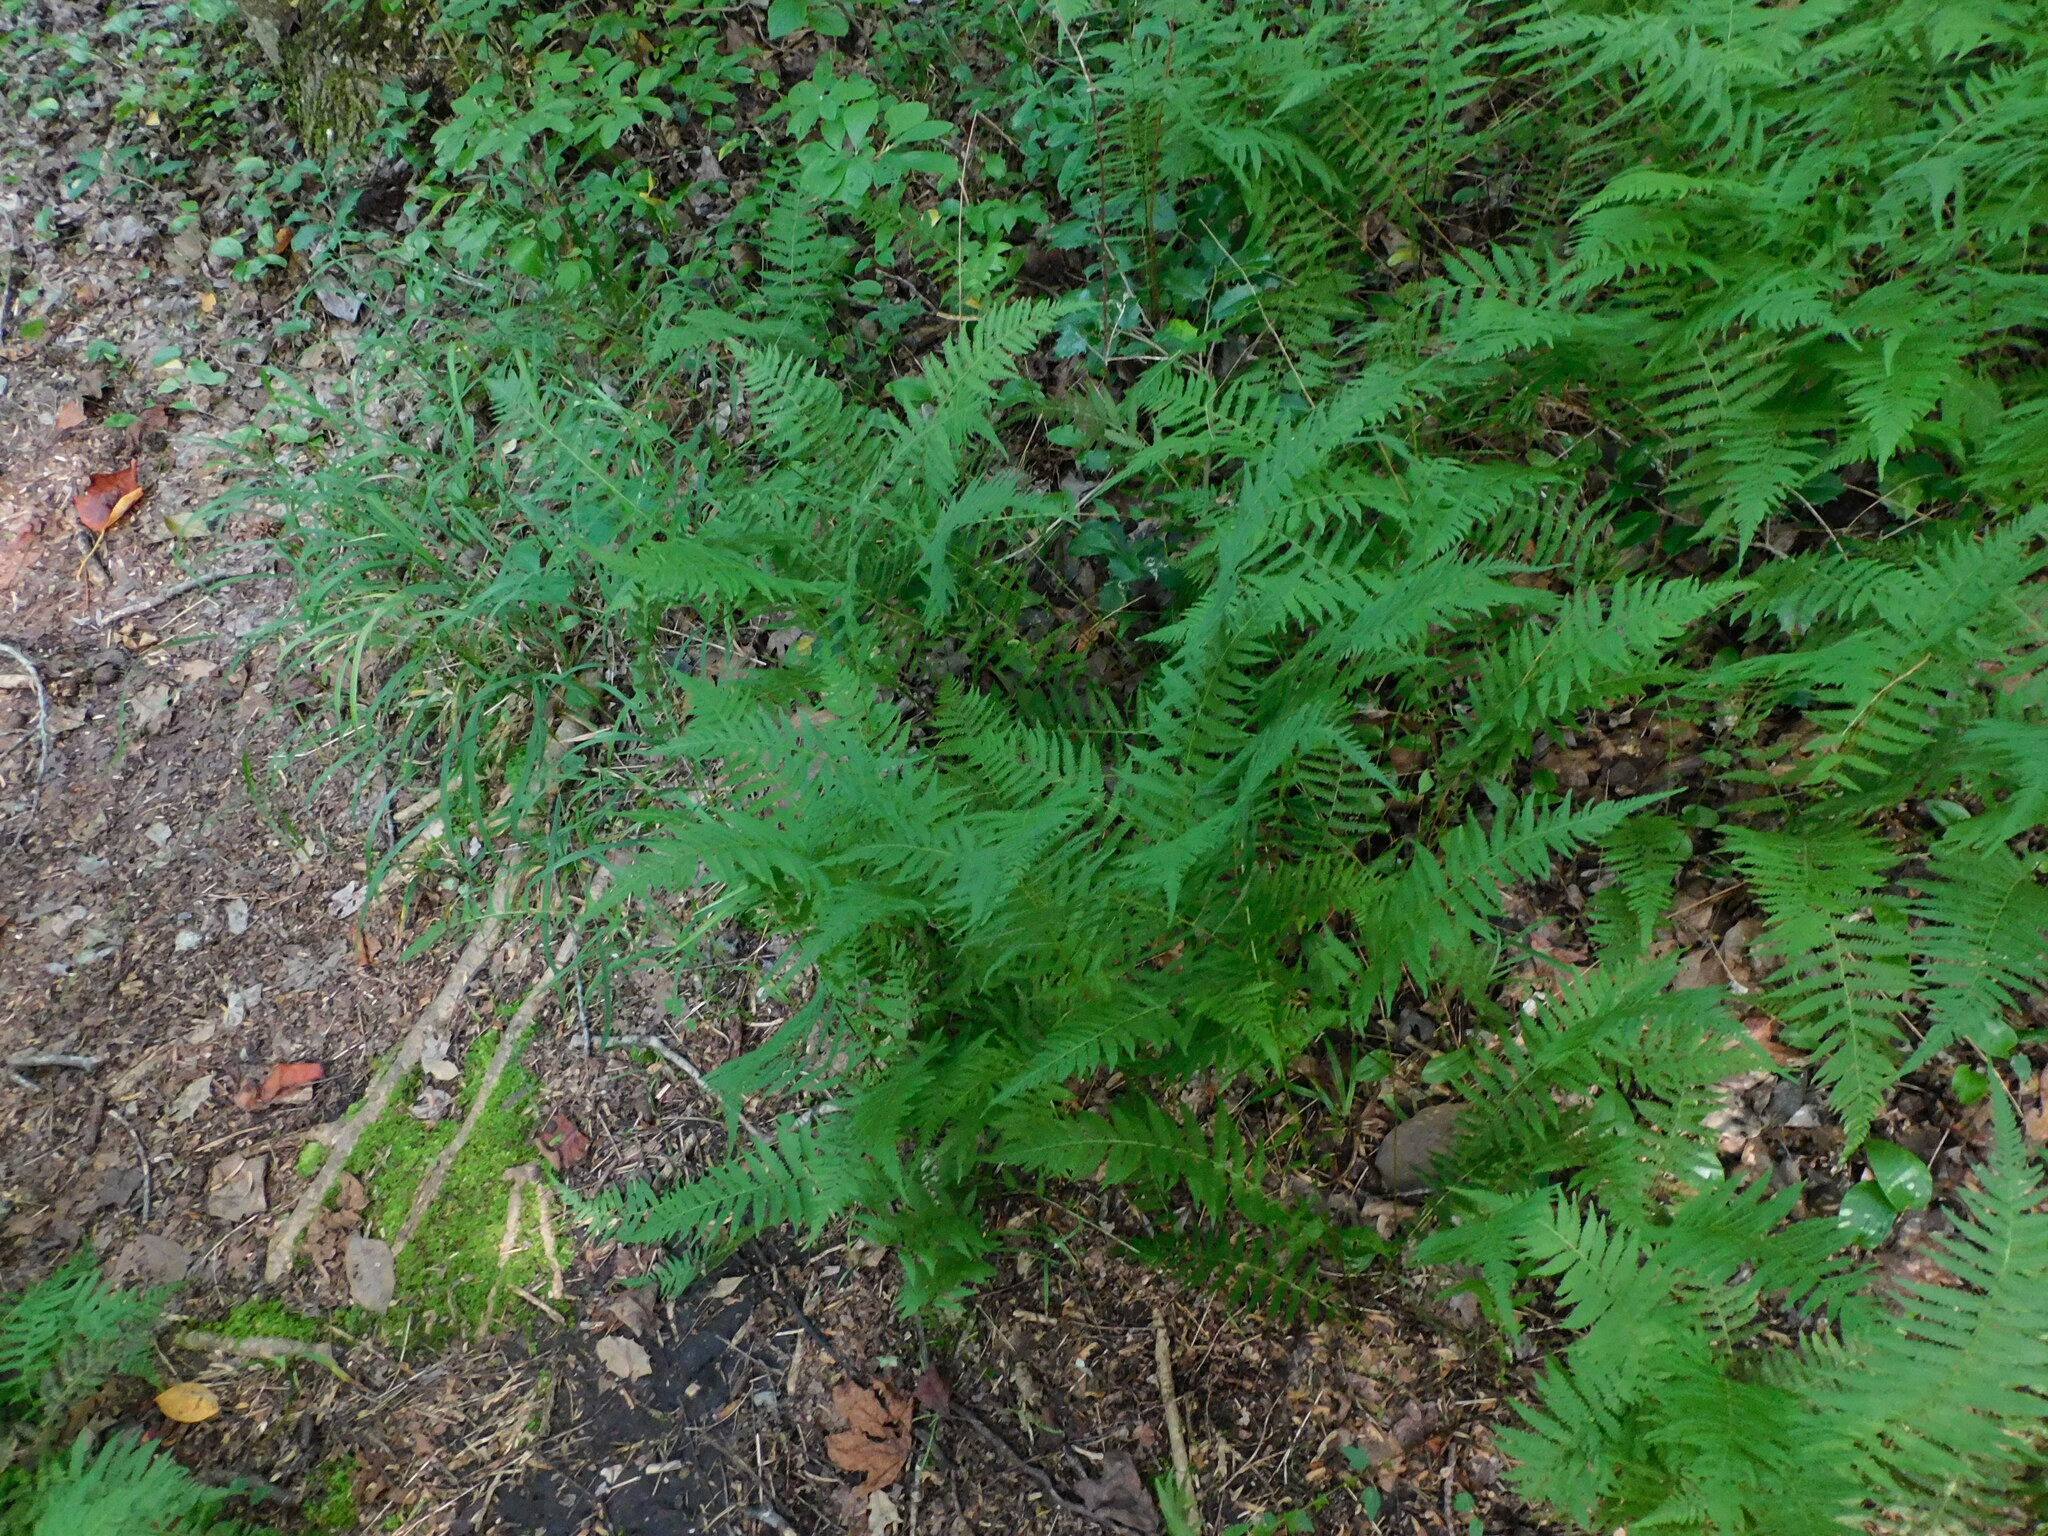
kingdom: Plantae
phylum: Tracheophyta
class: Polypodiopsida
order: Polypodiales
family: Thelypteridaceae
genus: Amauropelta
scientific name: Amauropelta noveboracensis
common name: New york fern
